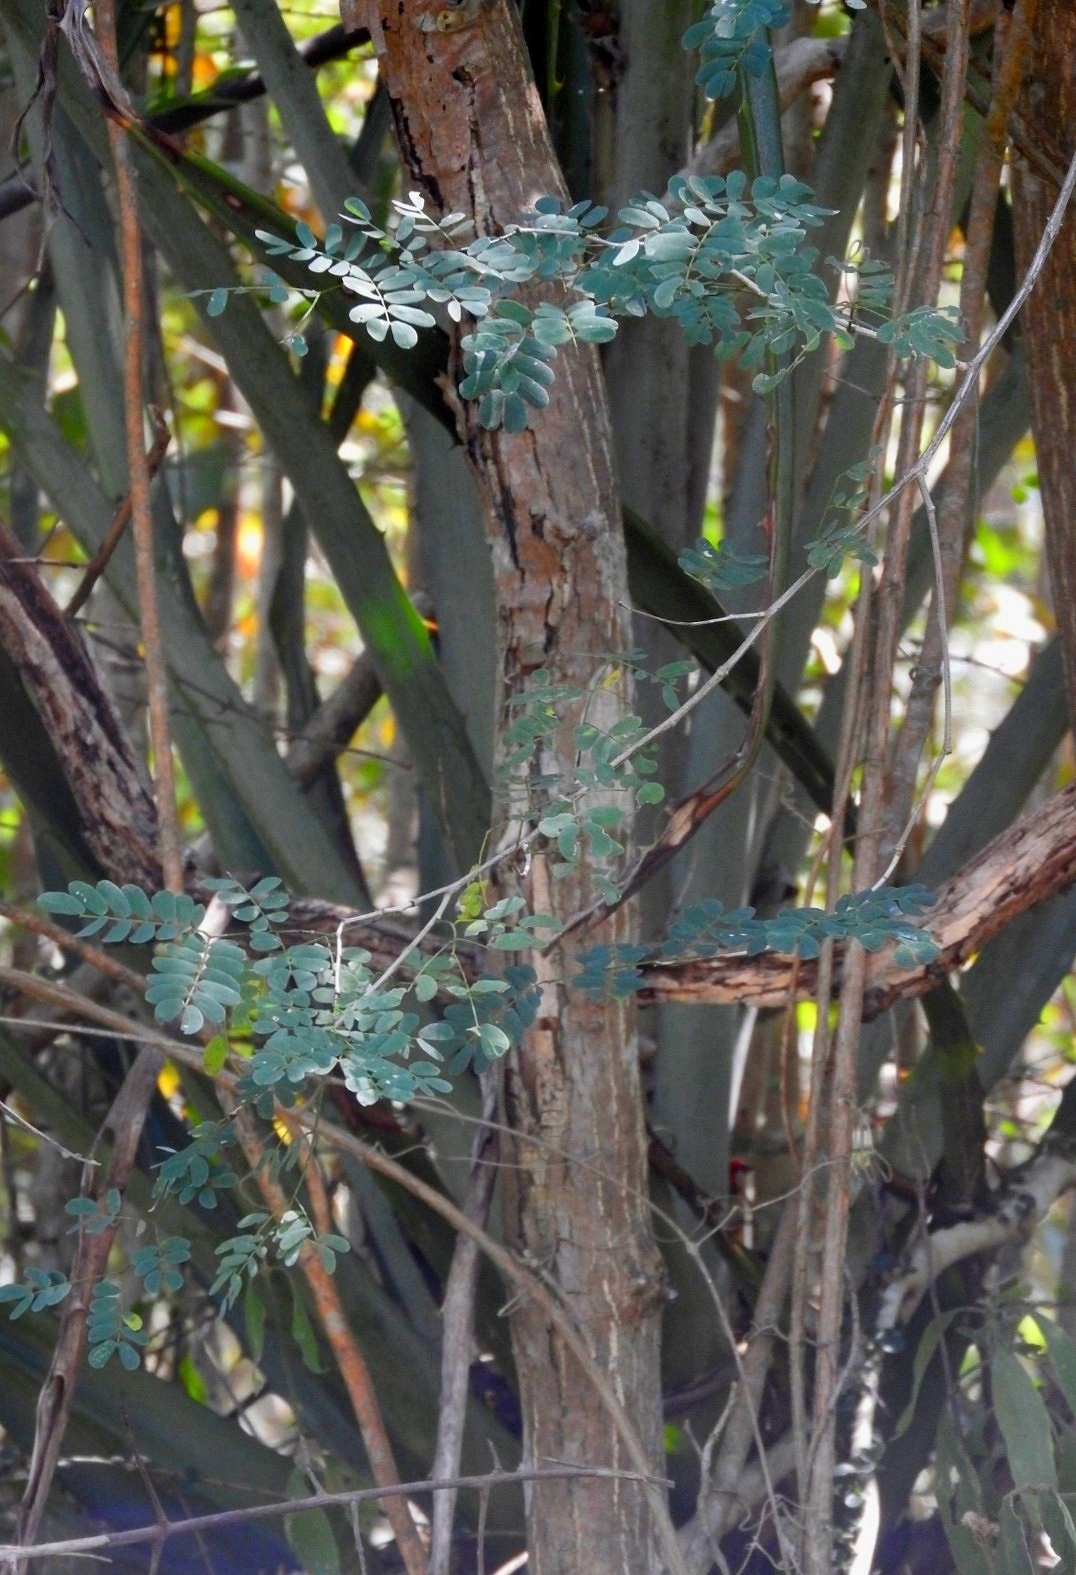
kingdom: Plantae
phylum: Tracheophyta
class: Liliopsida
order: Asparagales
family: Asparagaceae
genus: Agave
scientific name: Agave angustifolia
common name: Mescal agave
